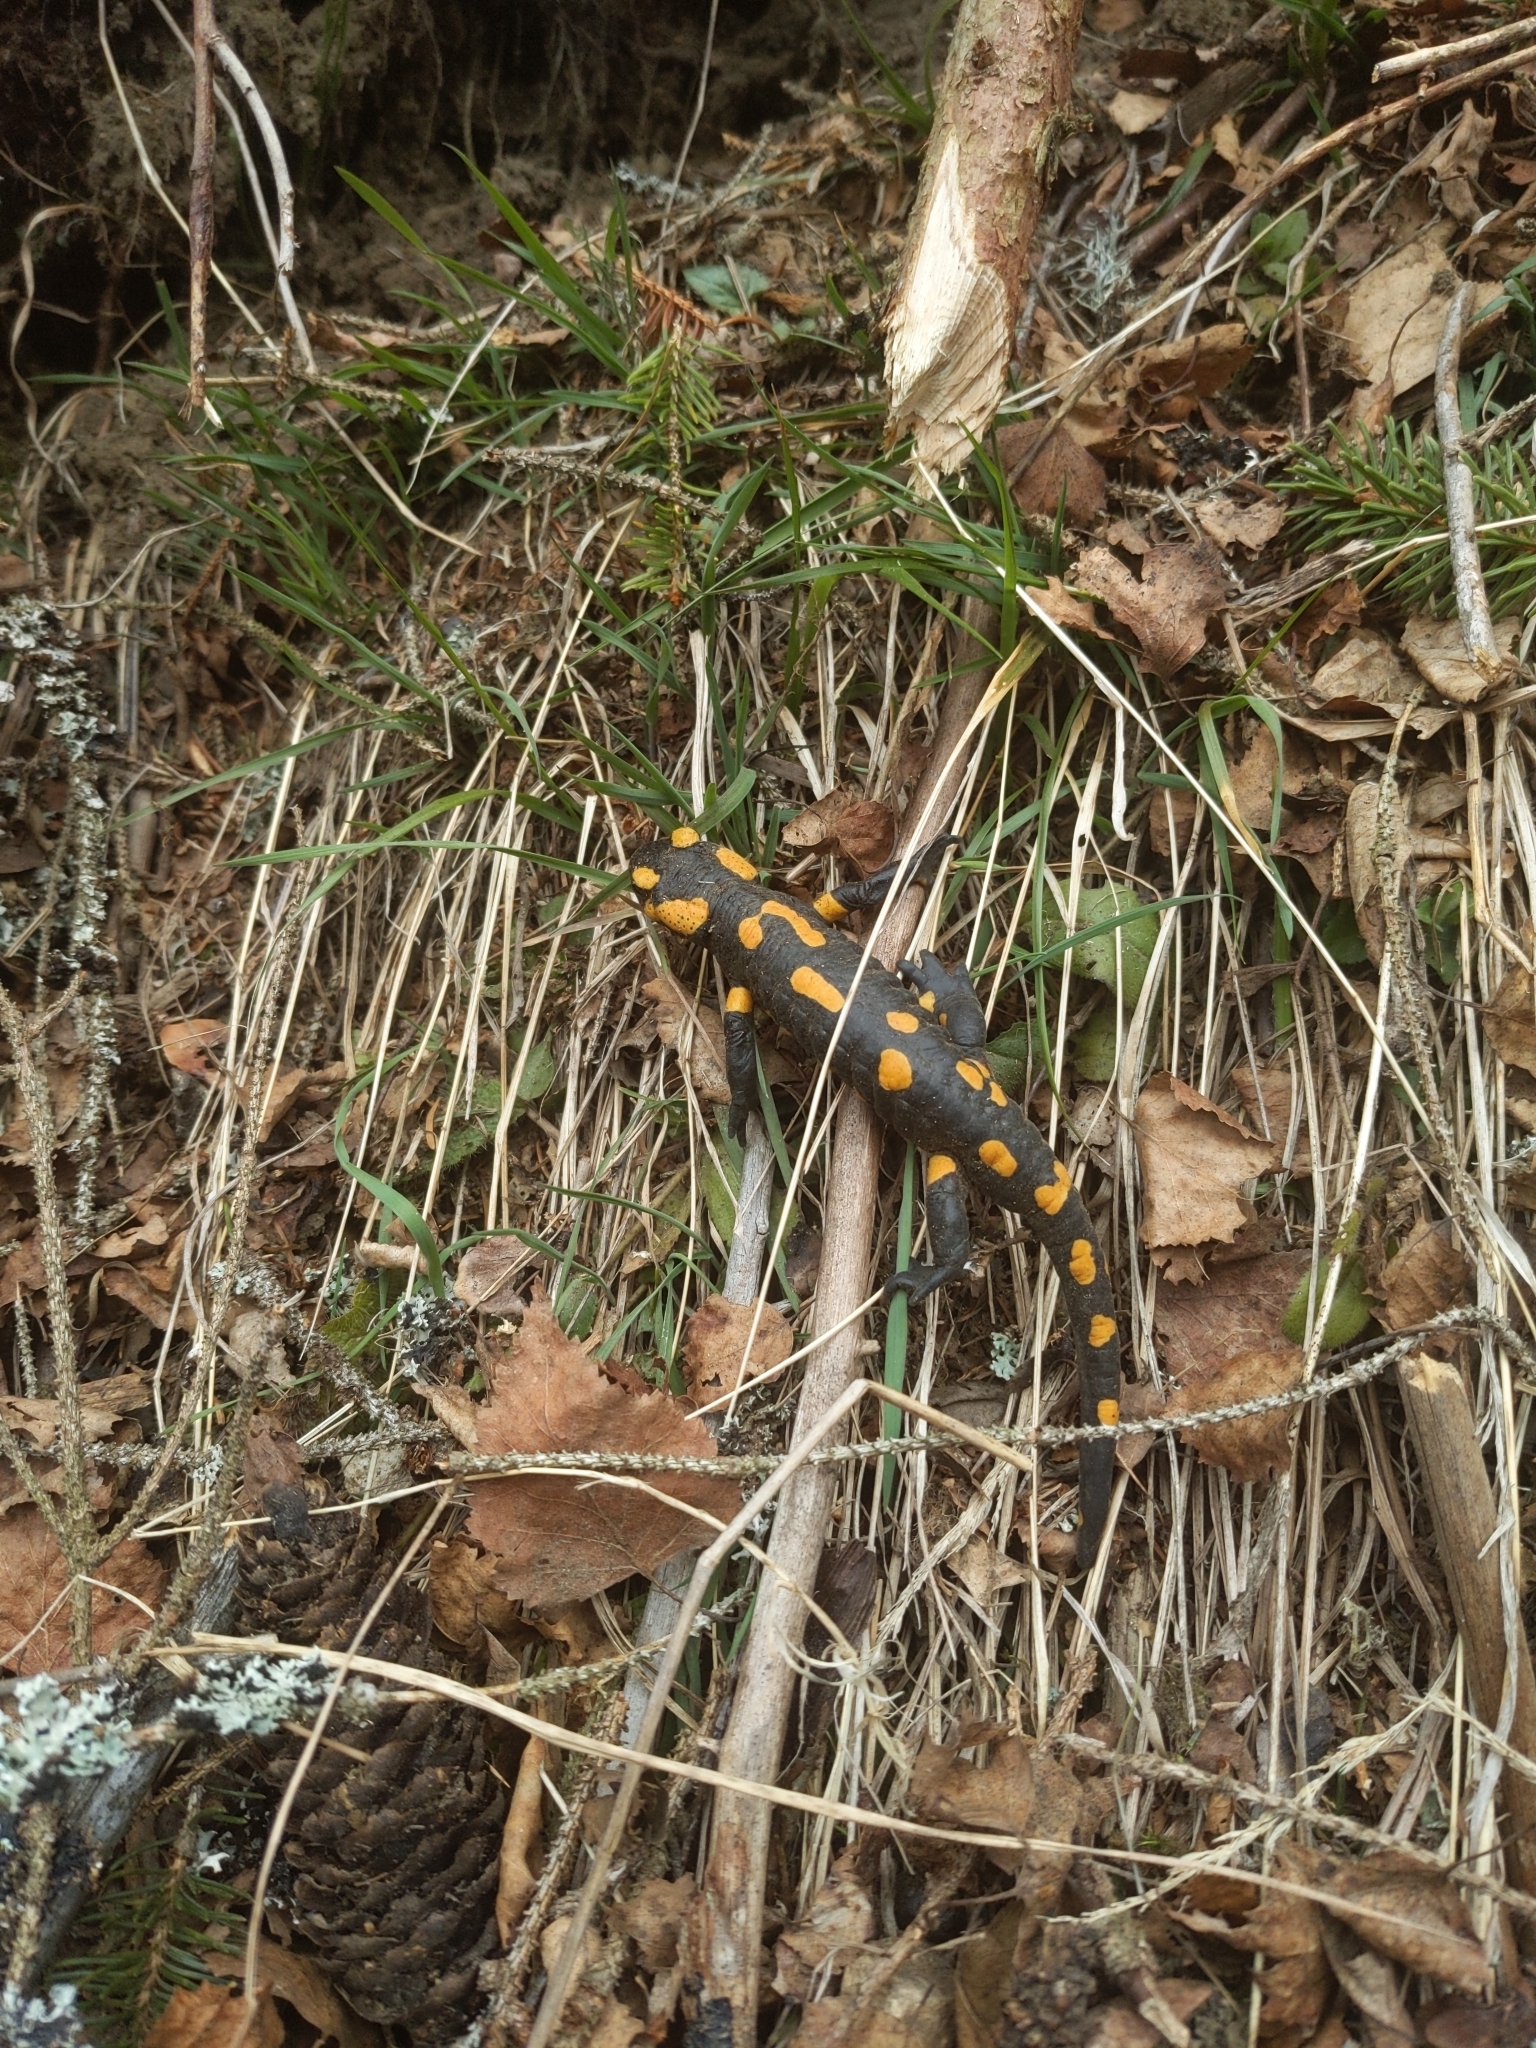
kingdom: Animalia
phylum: Chordata
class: Amphibia
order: Caudata
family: Salamandridae
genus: Salamandra
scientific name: Salamandra salamandra
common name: Fire salamander
